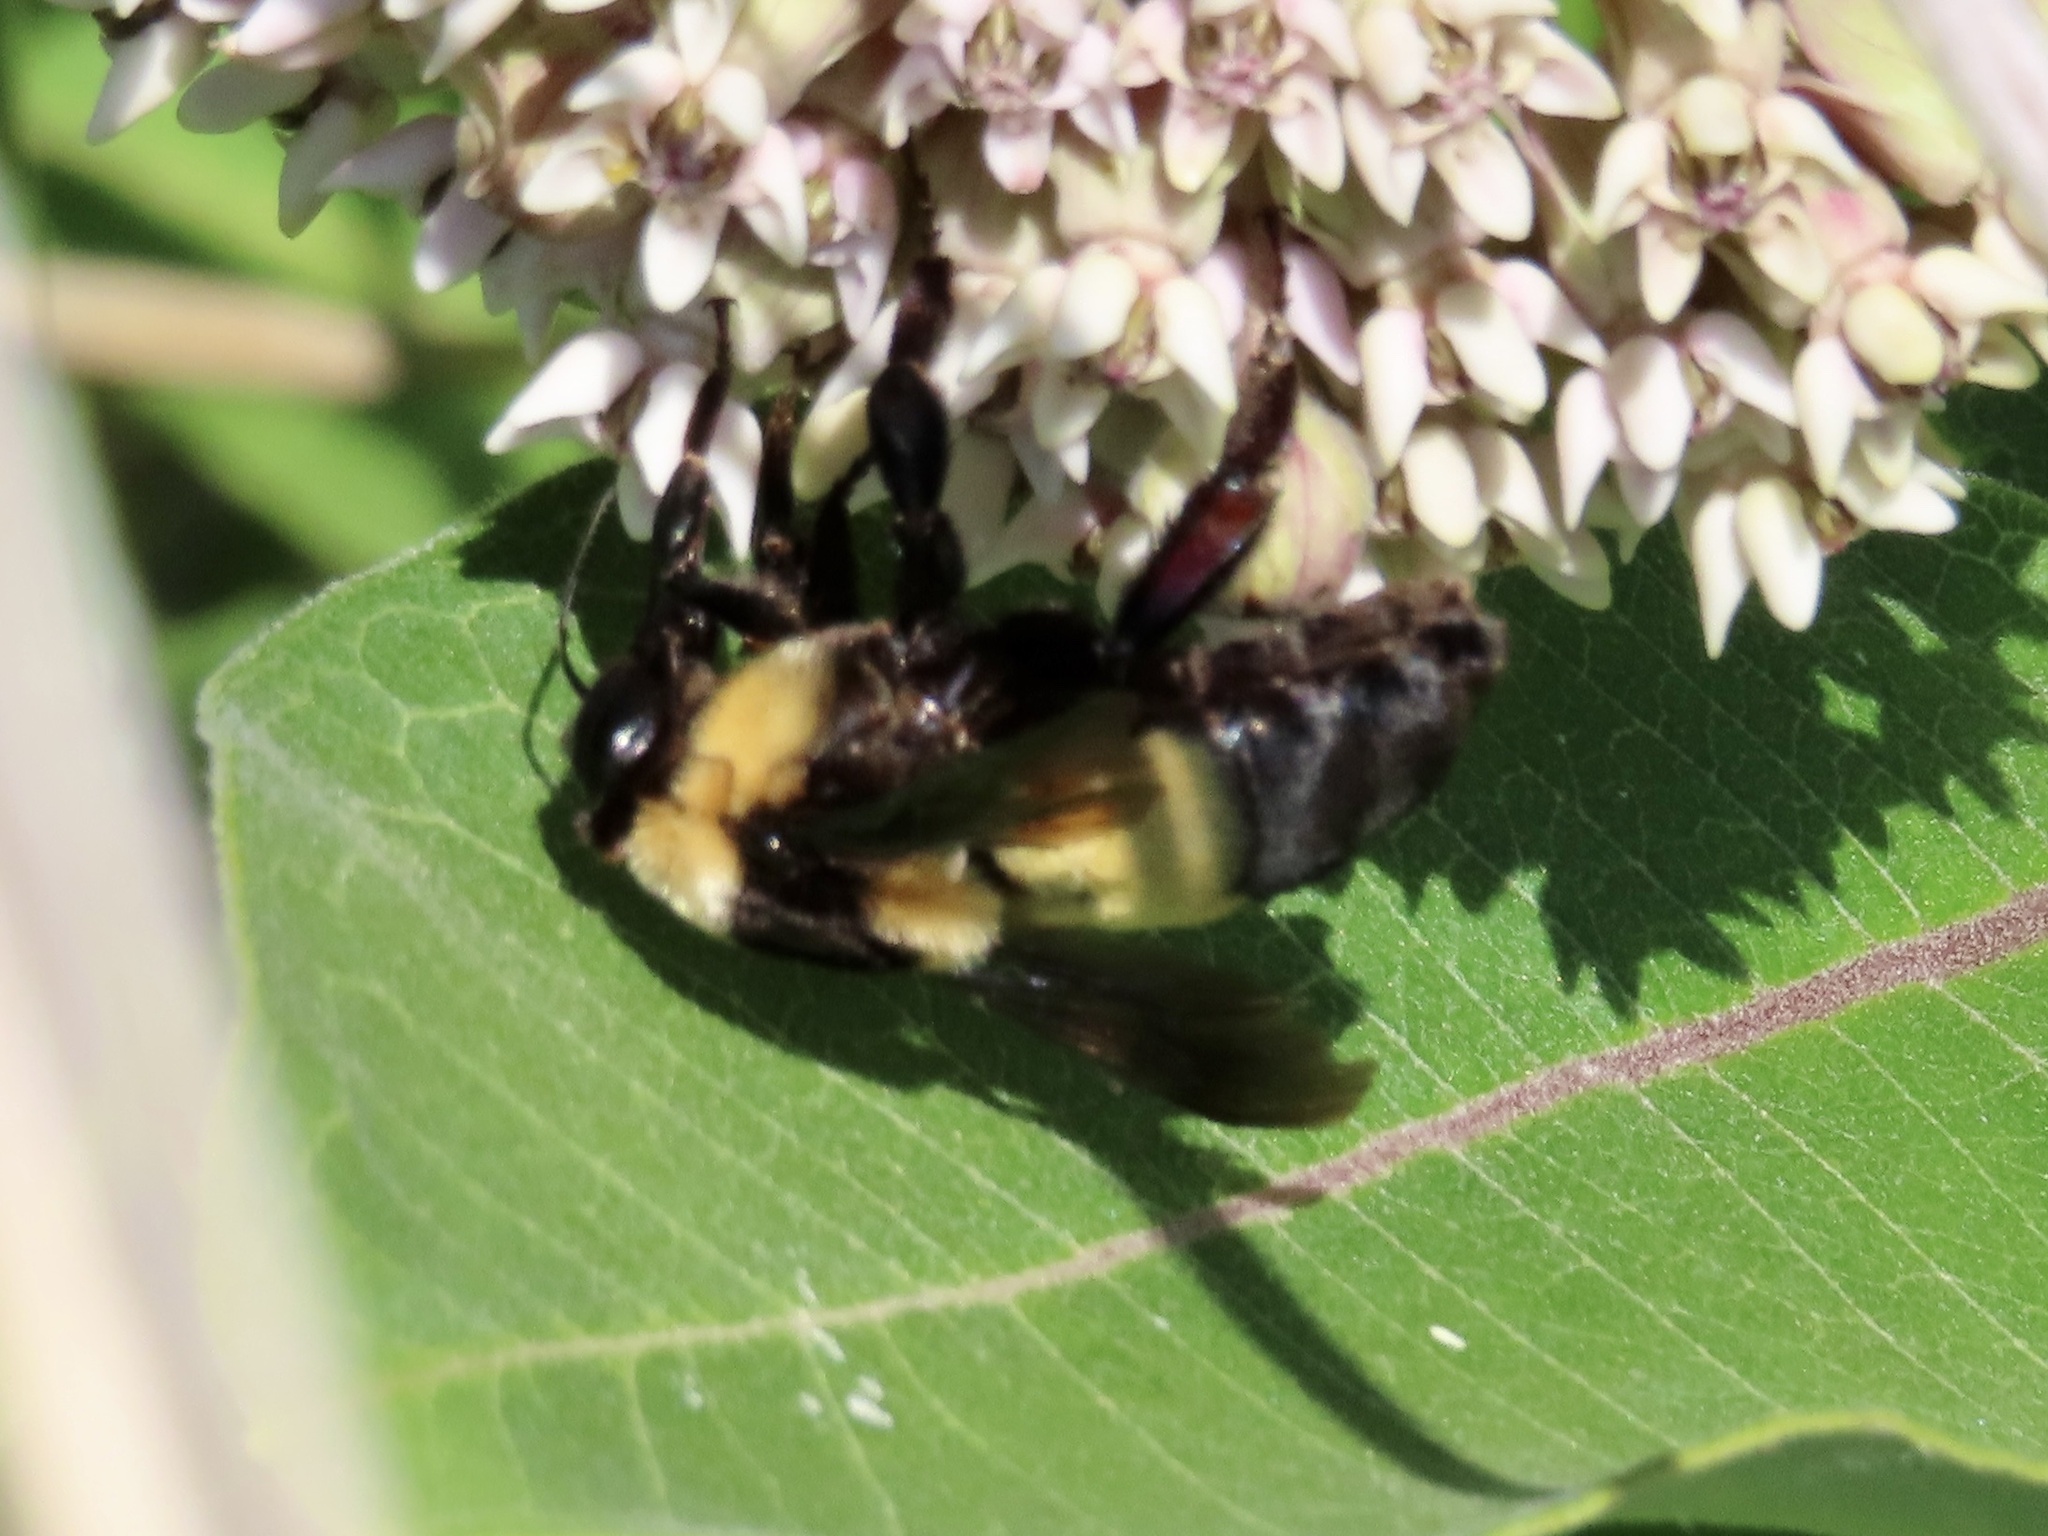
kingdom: Animalia
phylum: Arthropoda
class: Insecta
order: Hymenoptera
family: Apidae
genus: Bombus
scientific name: Bombus fraternus
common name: Southern plains bumble bee
